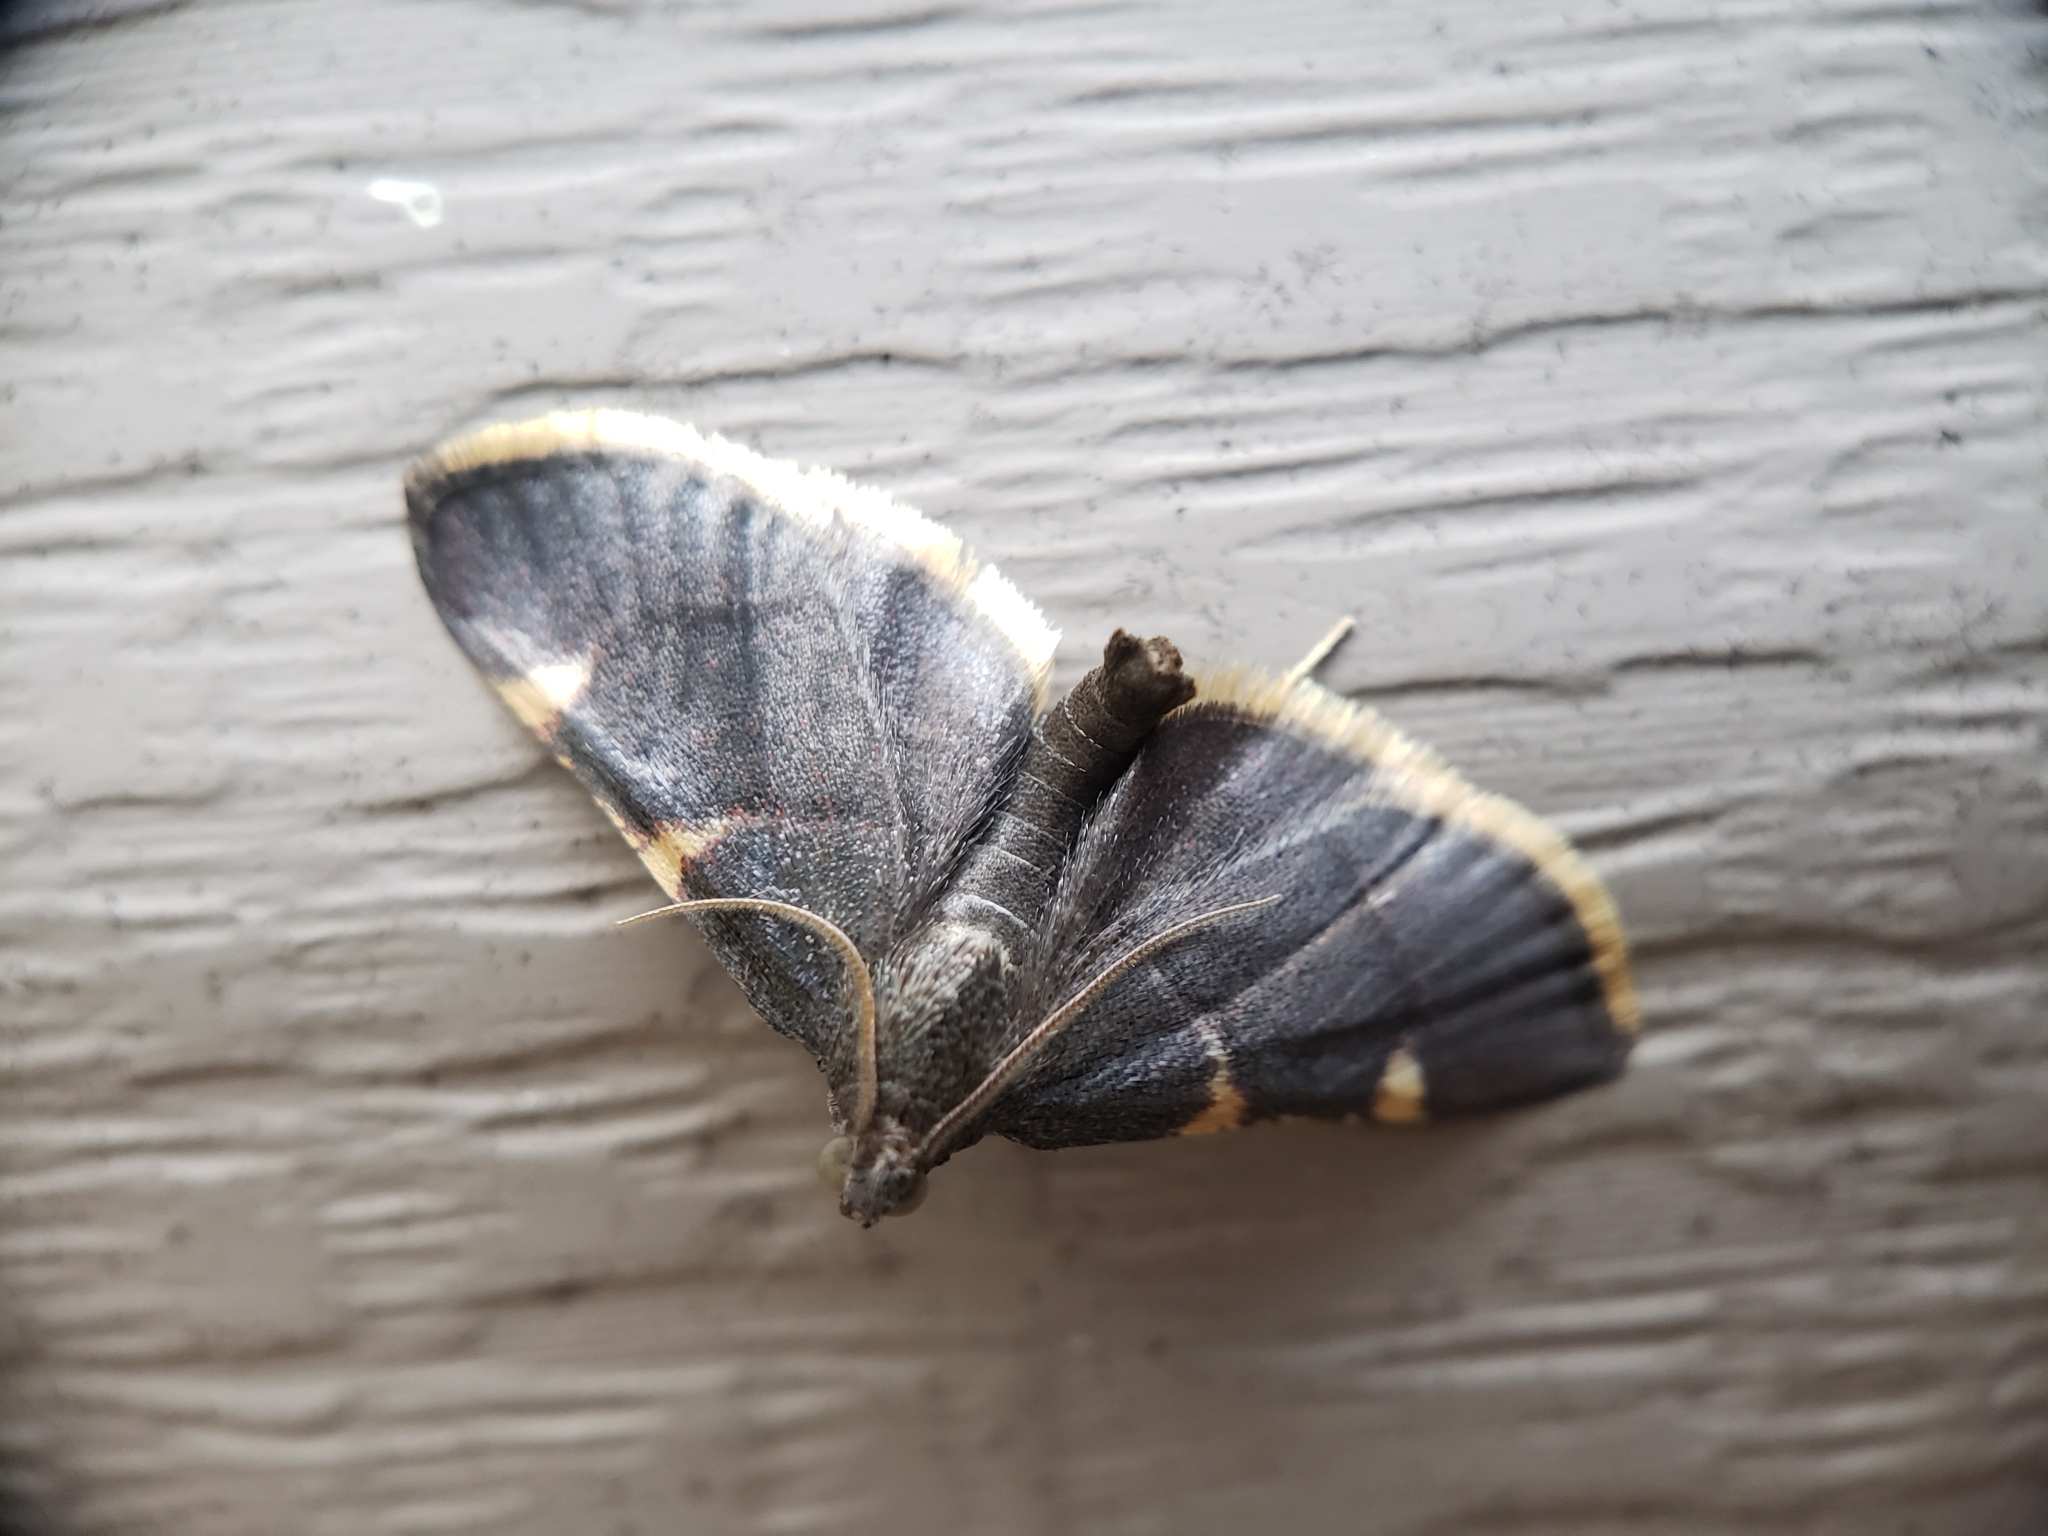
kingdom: Animalia
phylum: Arthropoda
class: Insecta
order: Lepidoptera
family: Pyralidae
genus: Hypsopygia
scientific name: Hypsopygia olinalis
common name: Yellow-fringed dolichomia moth
